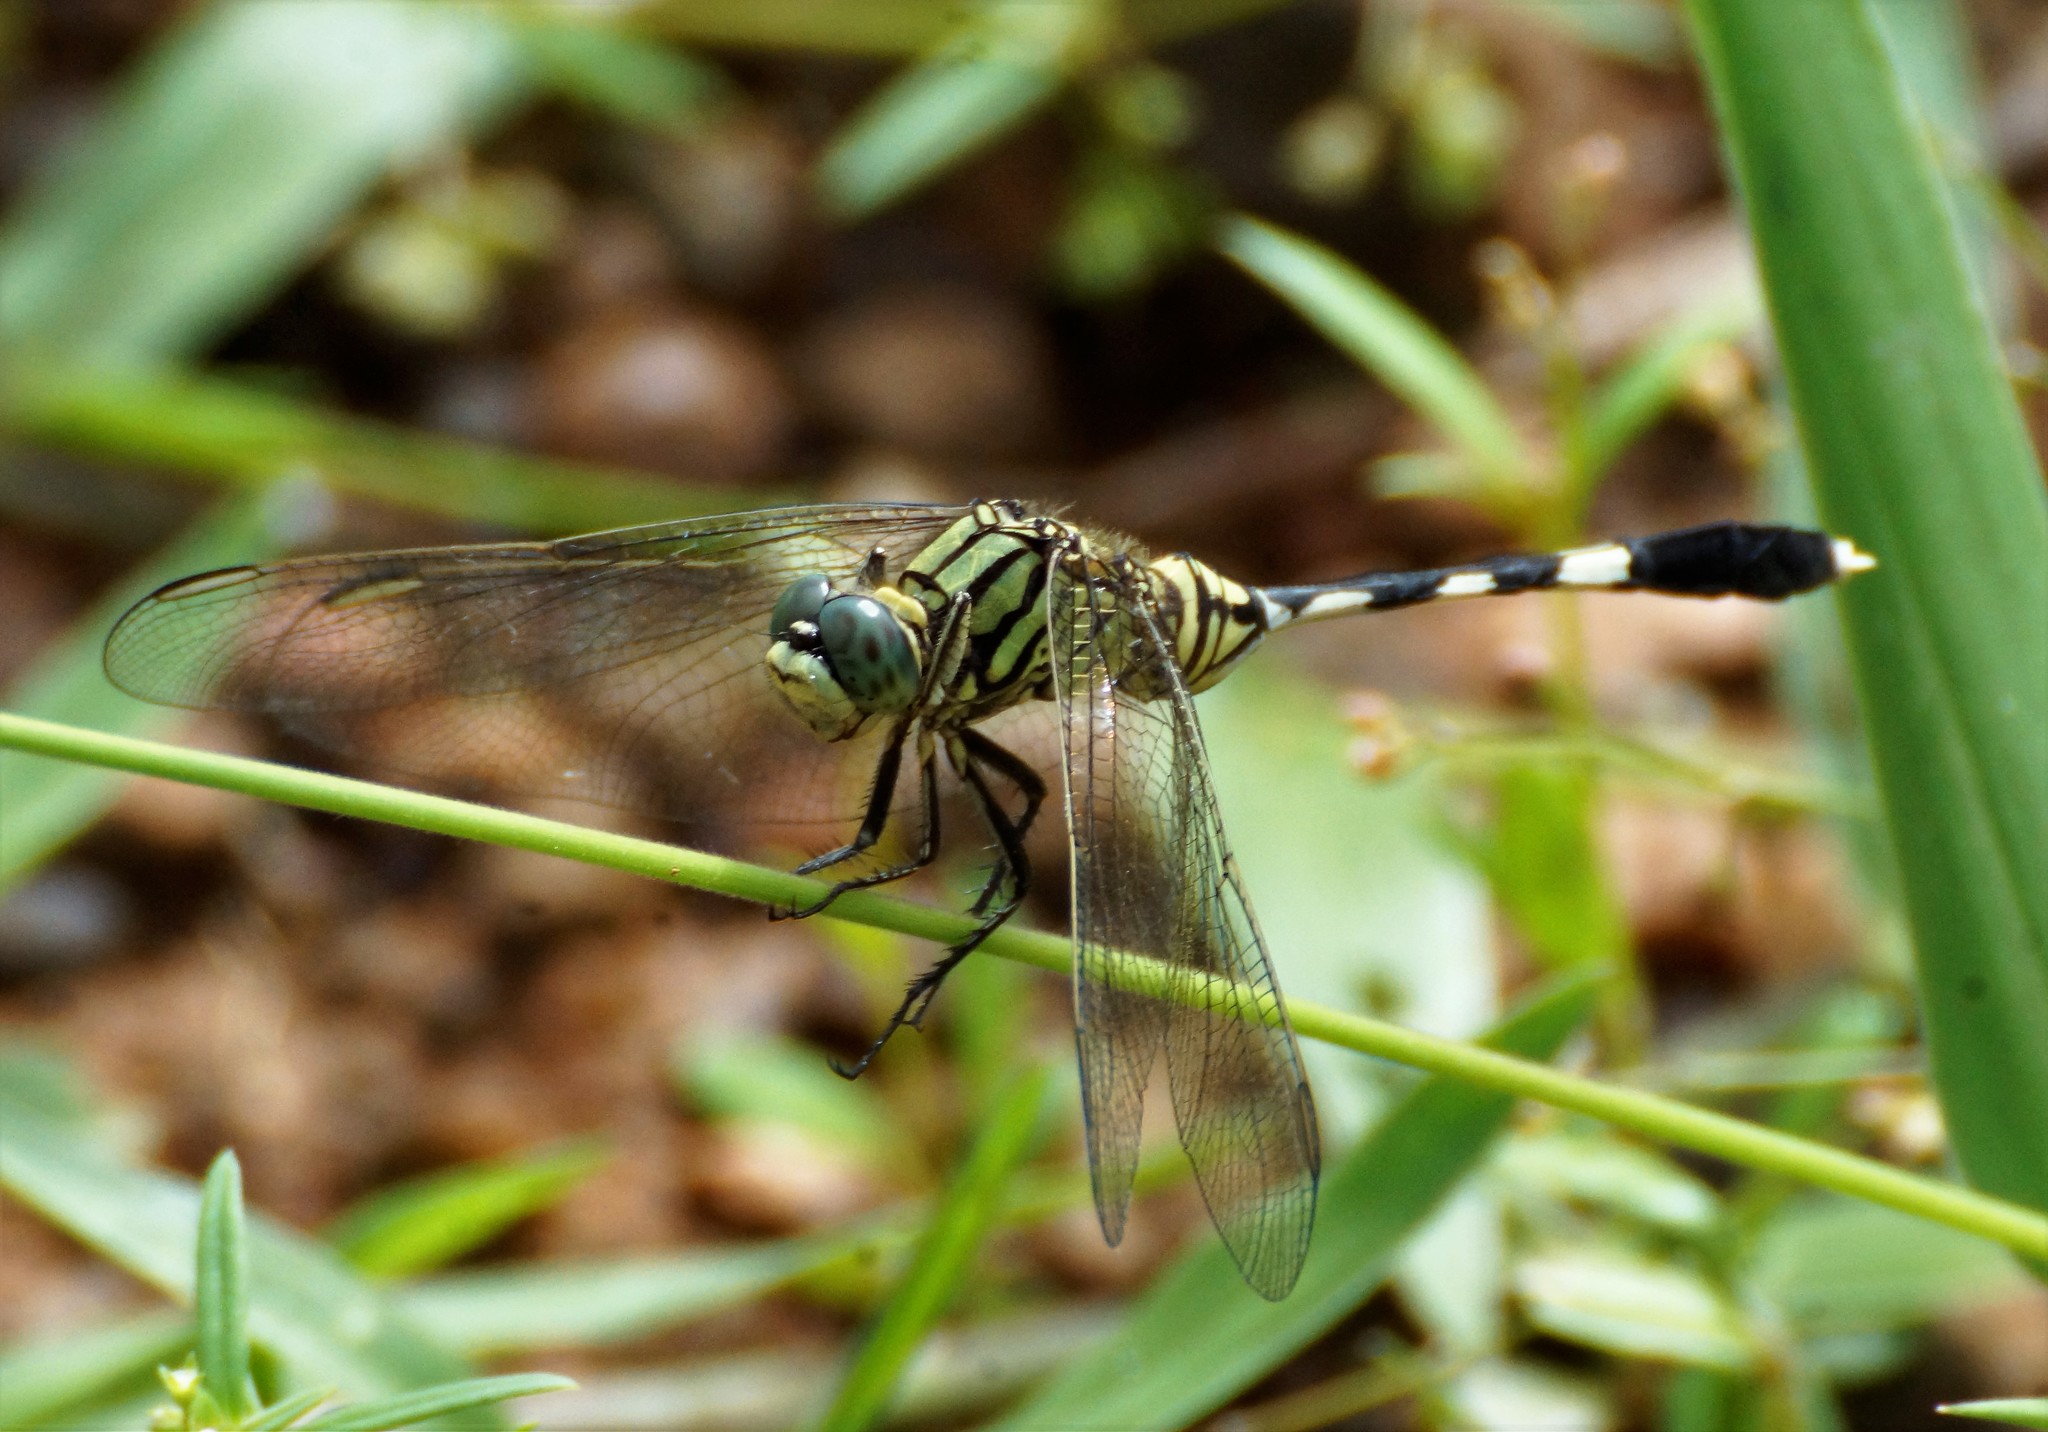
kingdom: Animalia
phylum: Arthropoda
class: Insecta
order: Odonata
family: Libellulidae
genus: Orthetrum
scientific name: Orthetrum sabina
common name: Slender skimmer
